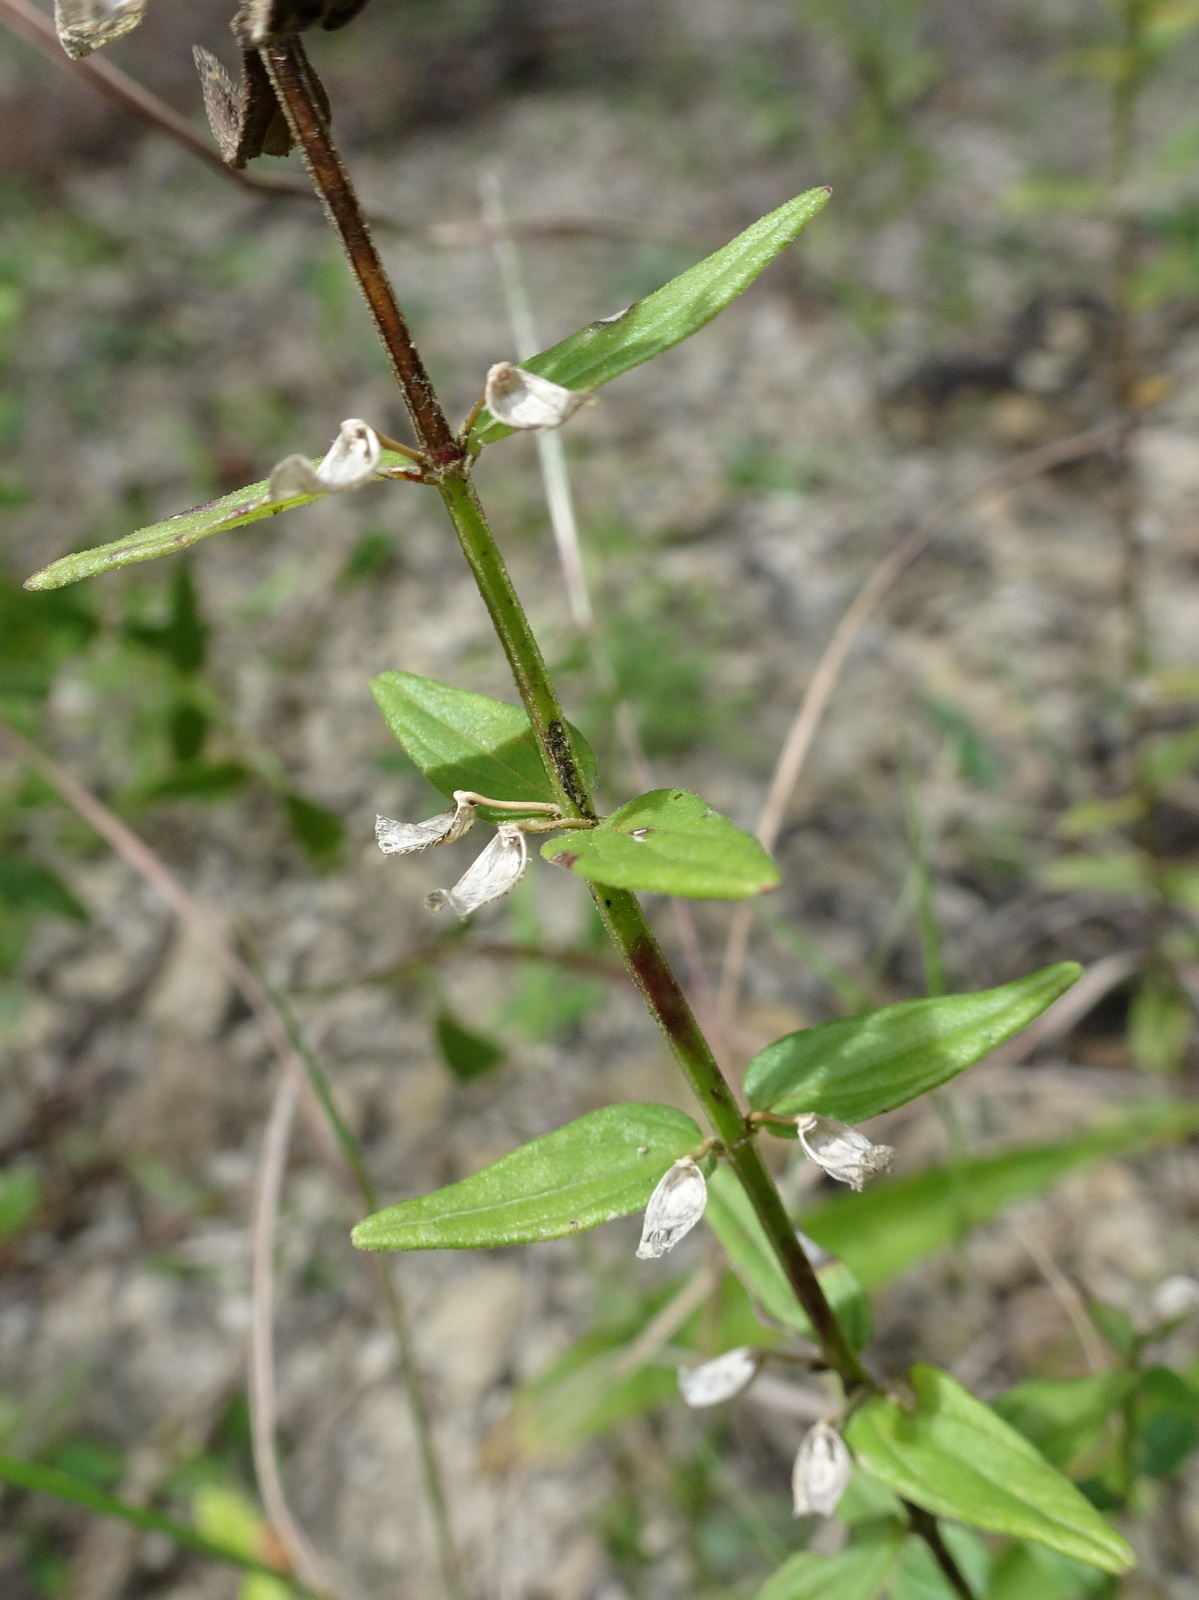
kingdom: Plantae
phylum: Tracheophyta
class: Magnoliopsida
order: Lamiales
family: Lamiaceae
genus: Scutellaria
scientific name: Scutellaria parvula
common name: Little scullcap
